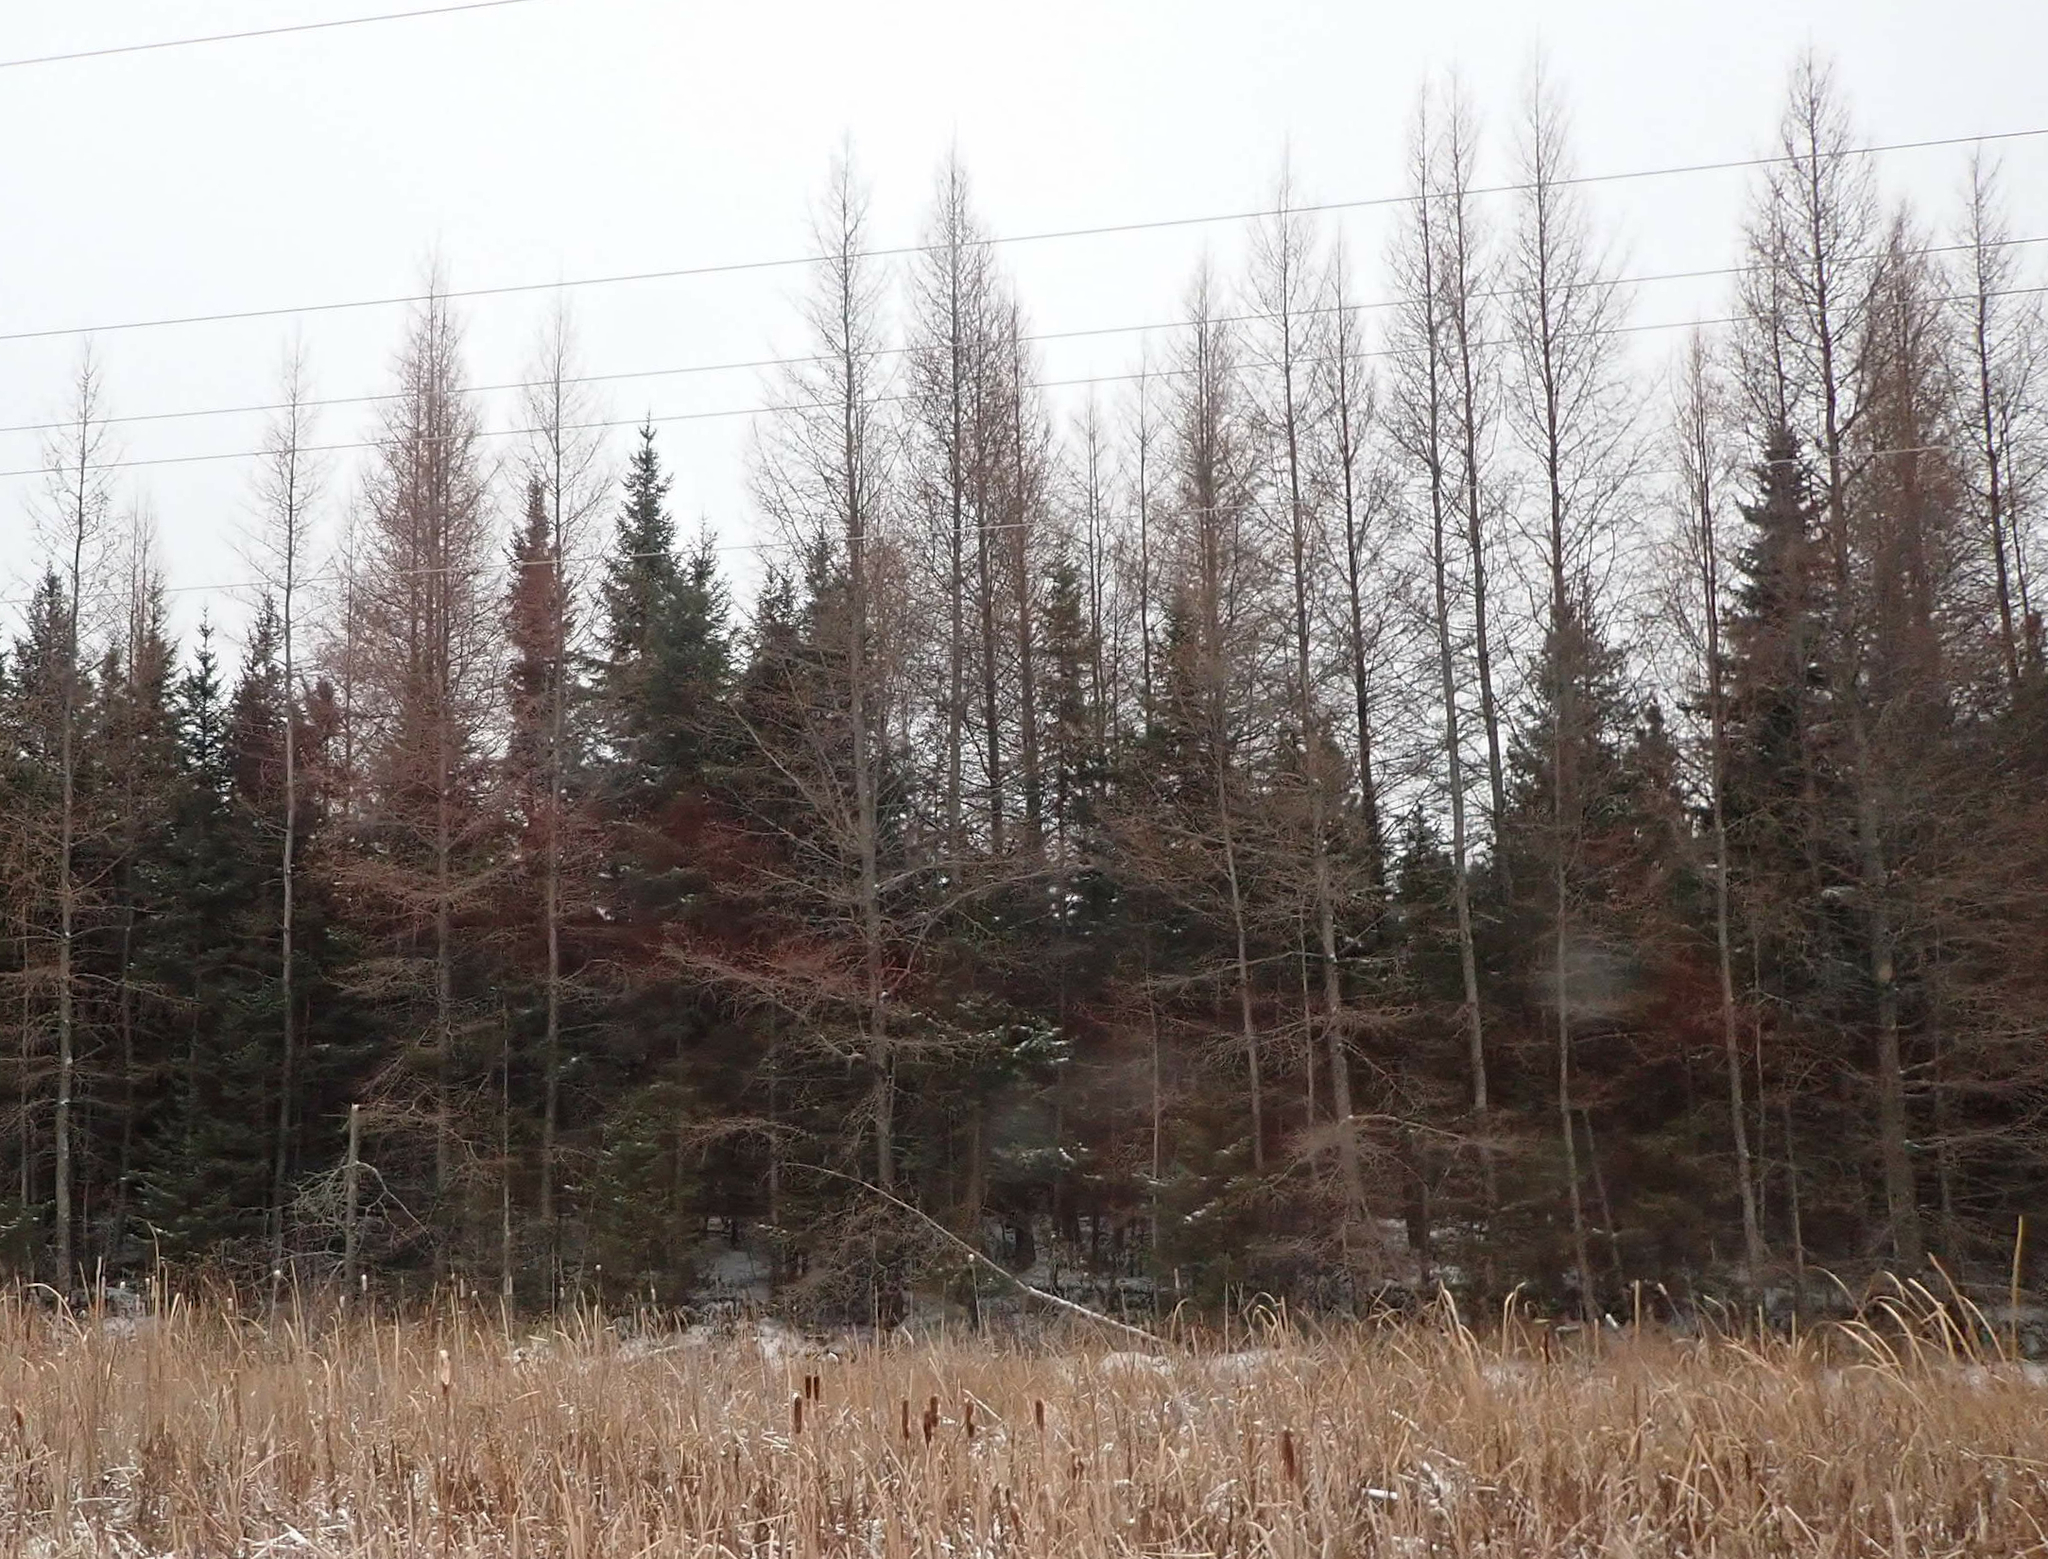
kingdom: Plantae
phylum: Tracheophyta
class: Pinopsida
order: Pinales
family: Pinaceae
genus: Larix
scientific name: Larix laricina
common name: American larch
